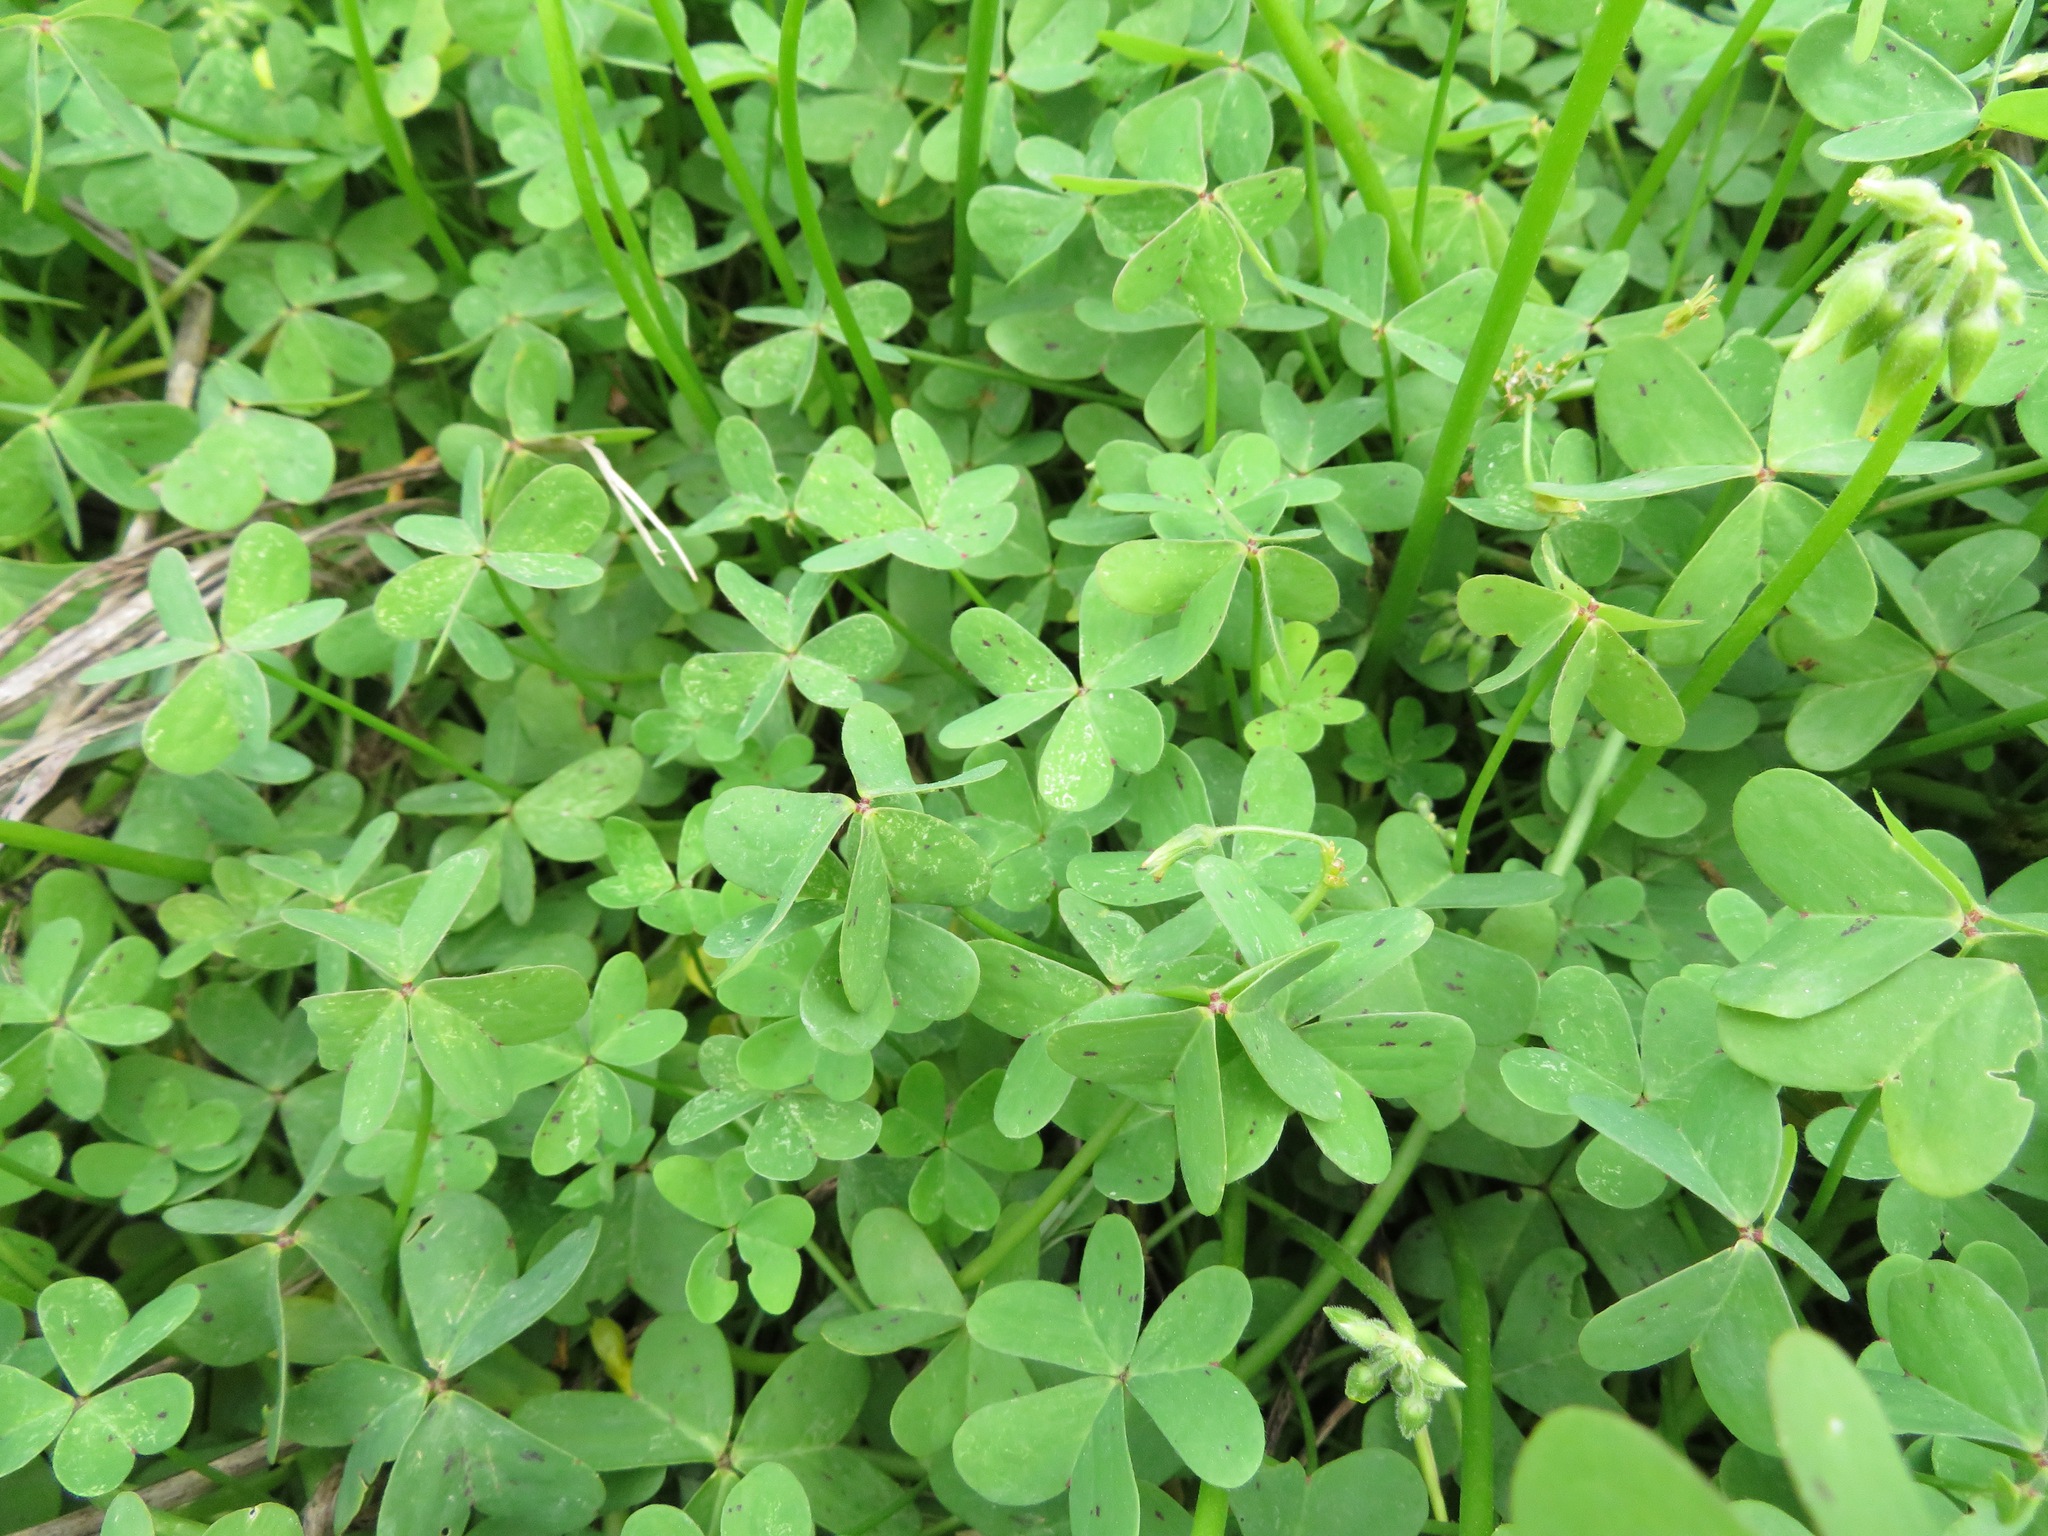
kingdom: Plantae
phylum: Tracheophyta
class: Magnoliopsida
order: Oxalidales
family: Oxalidaceae
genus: Oxalis
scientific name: Oxalis pes-caprae
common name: Bermuda-buttercup
